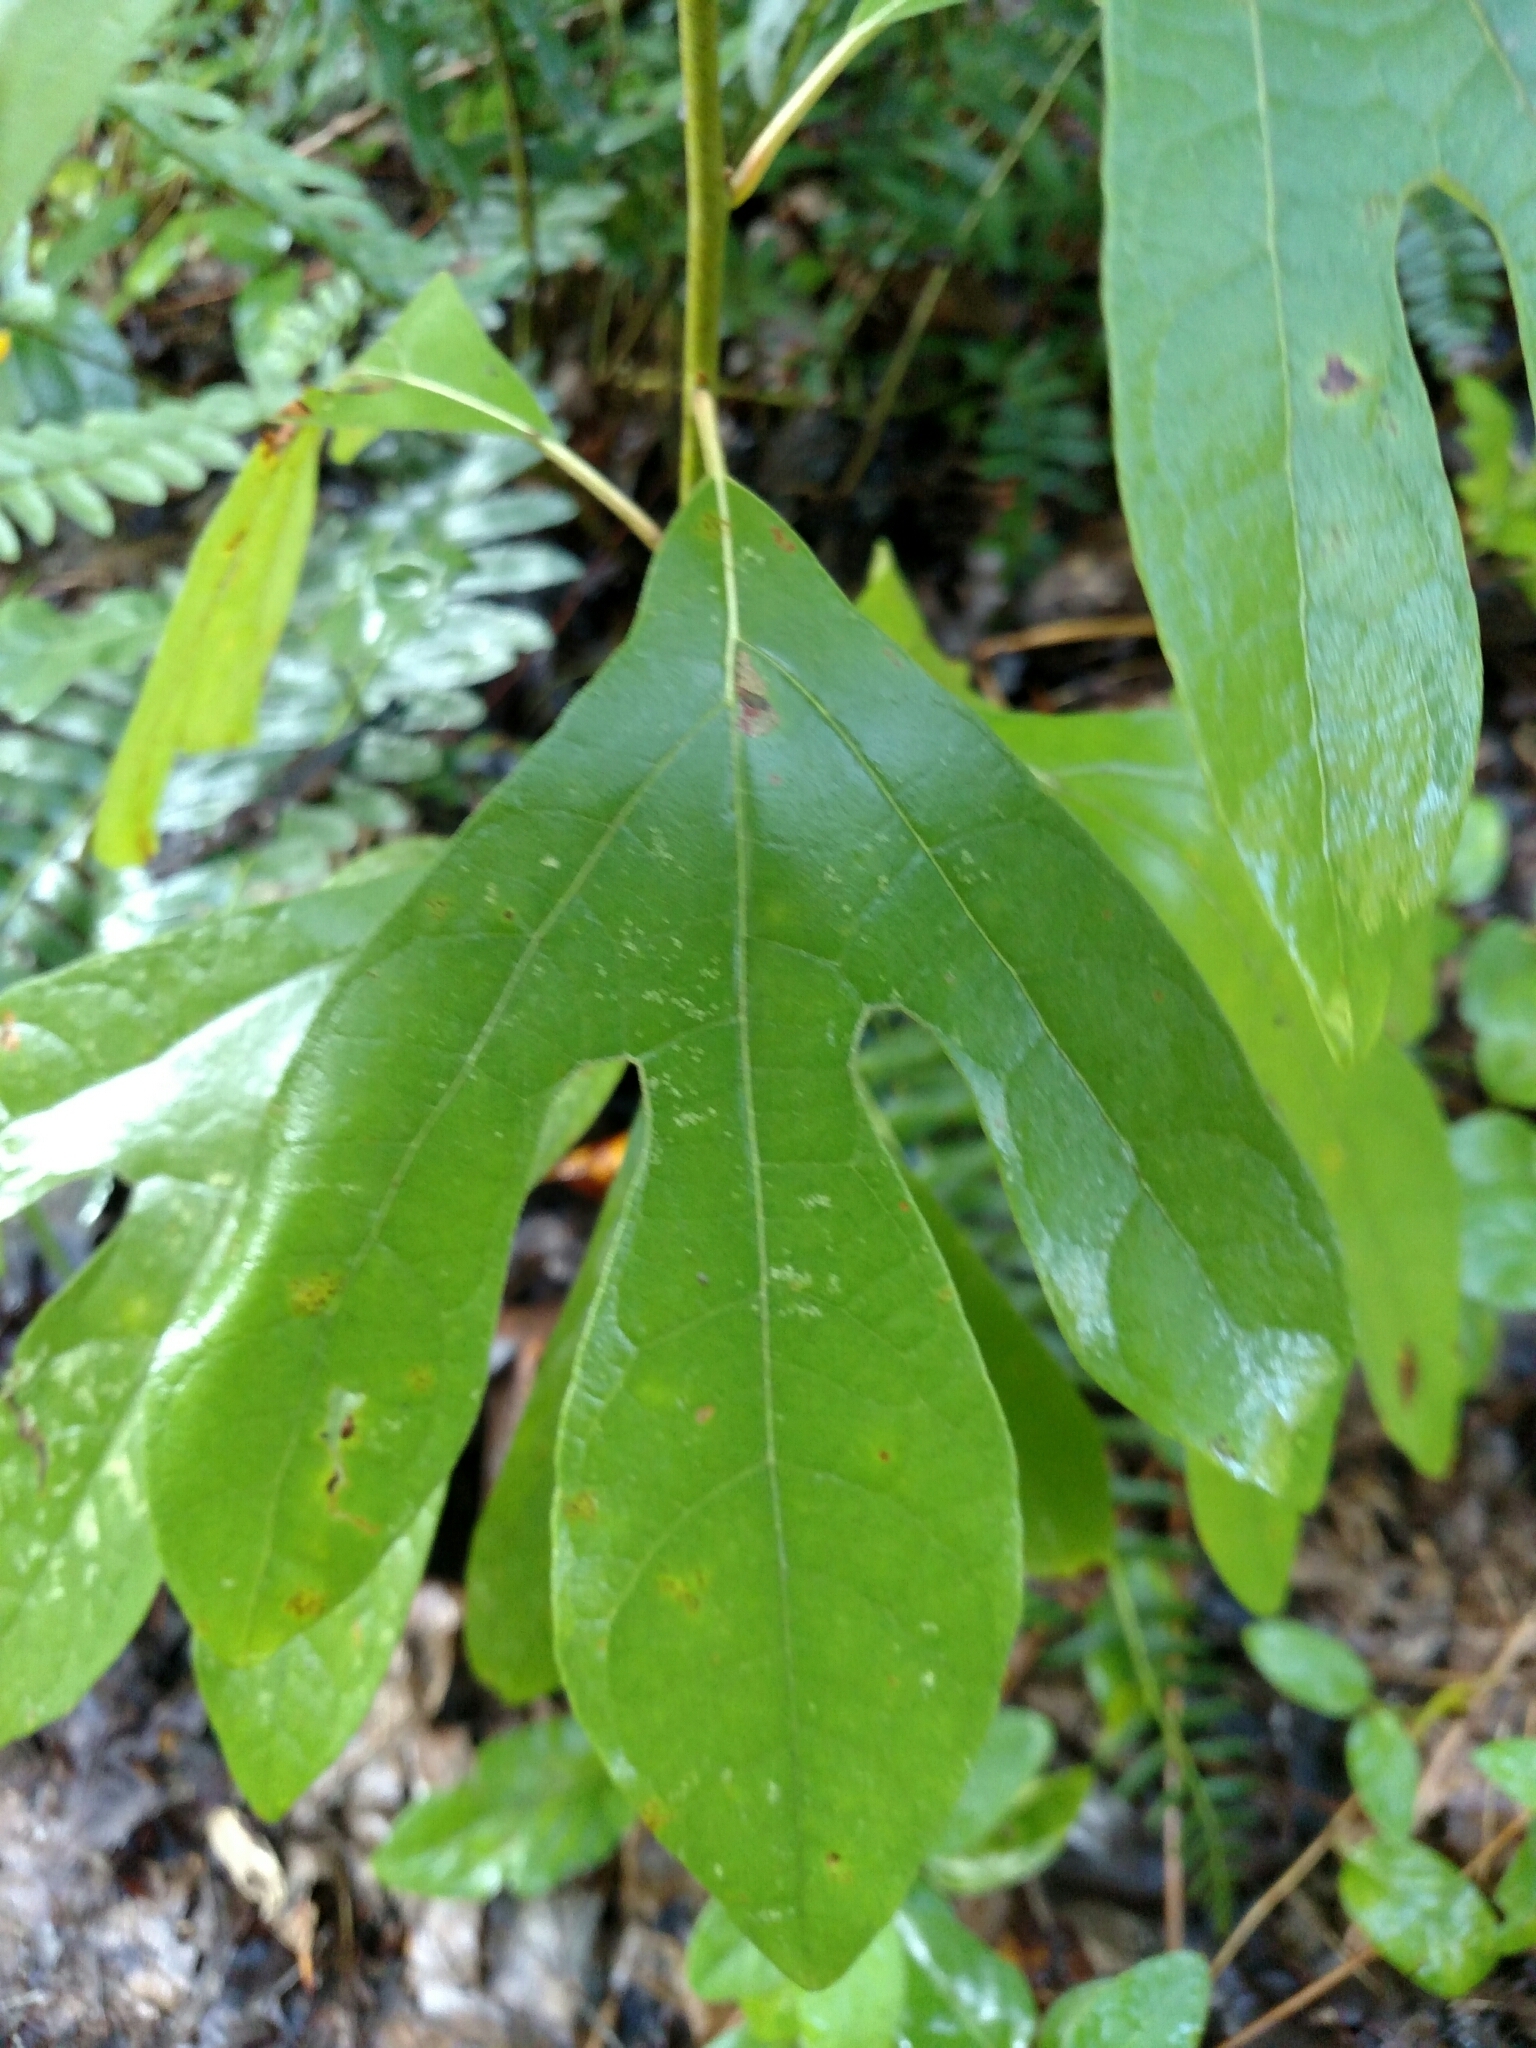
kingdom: Plantae
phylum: Tracheophyta
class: Magnoliopsida
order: Laurales
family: Lauraceae
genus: Sassafras
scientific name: Sassafras albidum
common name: Sassafras
